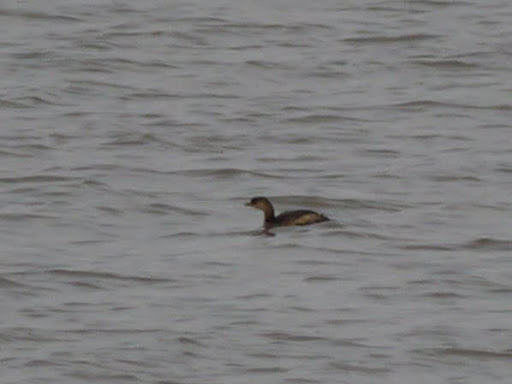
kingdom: Animalia
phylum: Chordata
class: Aves
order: Podicipediformes
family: Podicipedidae
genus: Podilymbus
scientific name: Podilymbus podiceps
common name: Pied-billed grebe
